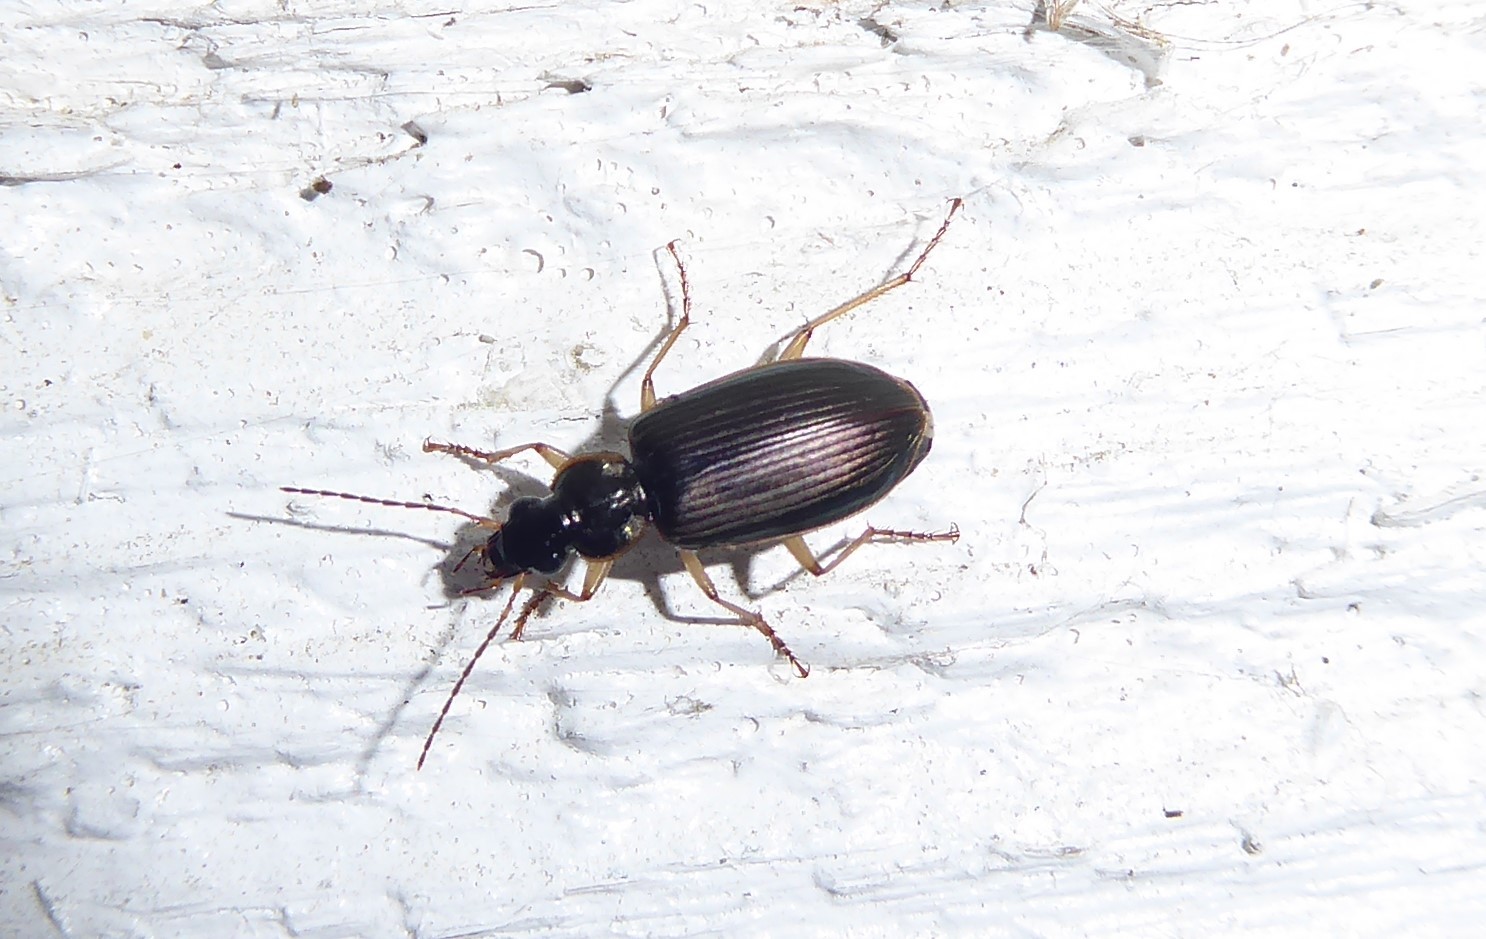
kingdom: Animalia
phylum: Arthropoda
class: Insecta
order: Coleoptera
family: Carabidae
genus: Notagonum
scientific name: Notagonum submetallicum
